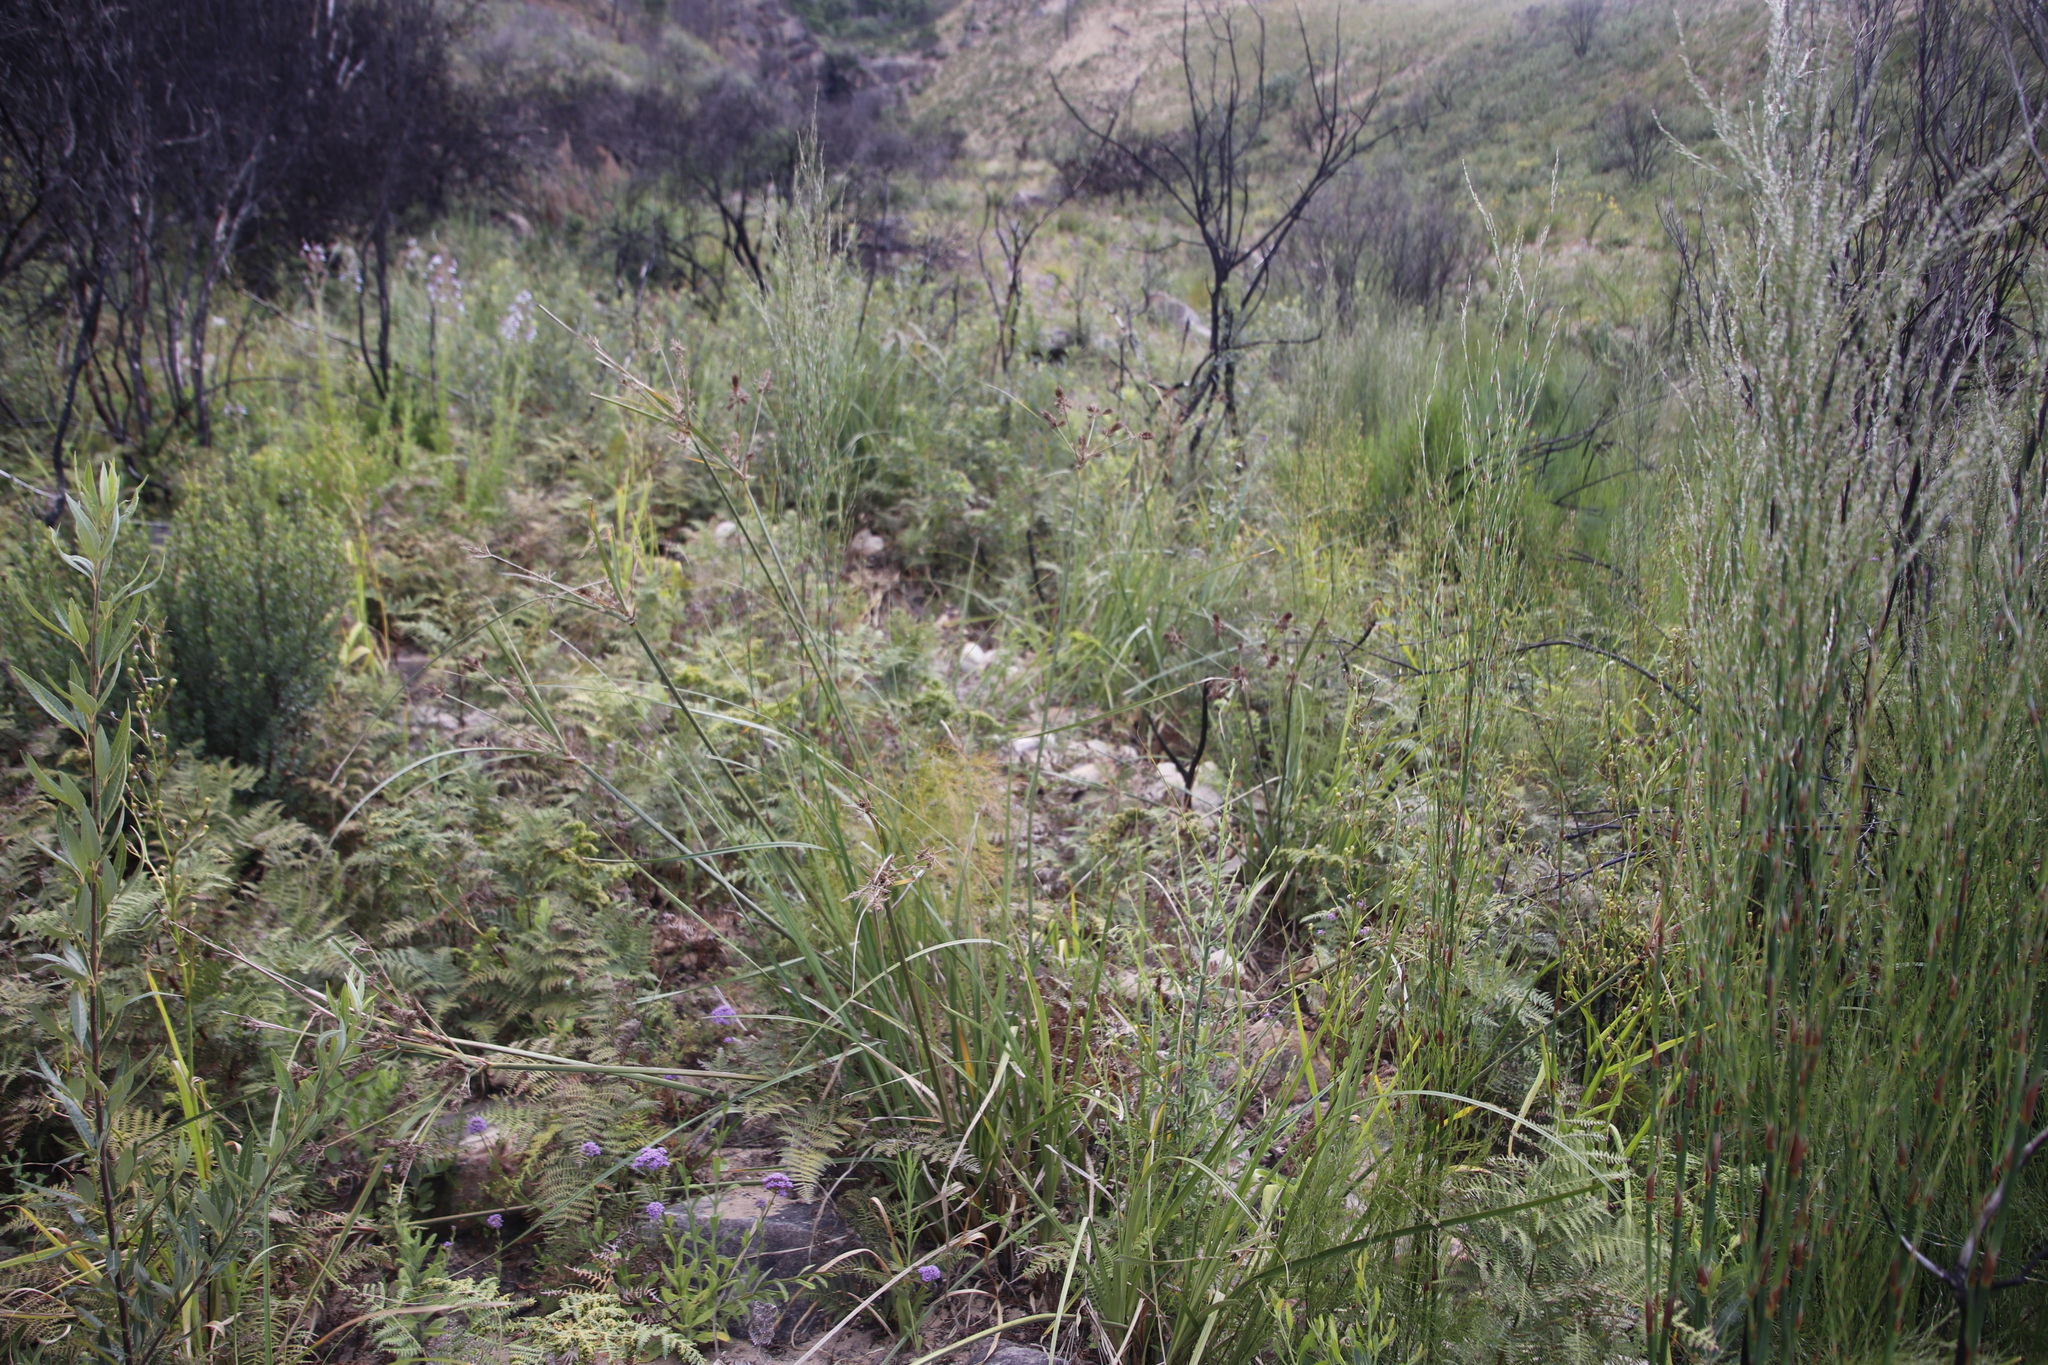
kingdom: Plantae
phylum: Tracheophyta
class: Liliopsida
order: Poales
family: Cyperaceae
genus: Cyperus
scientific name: Cyperus thunbergii
